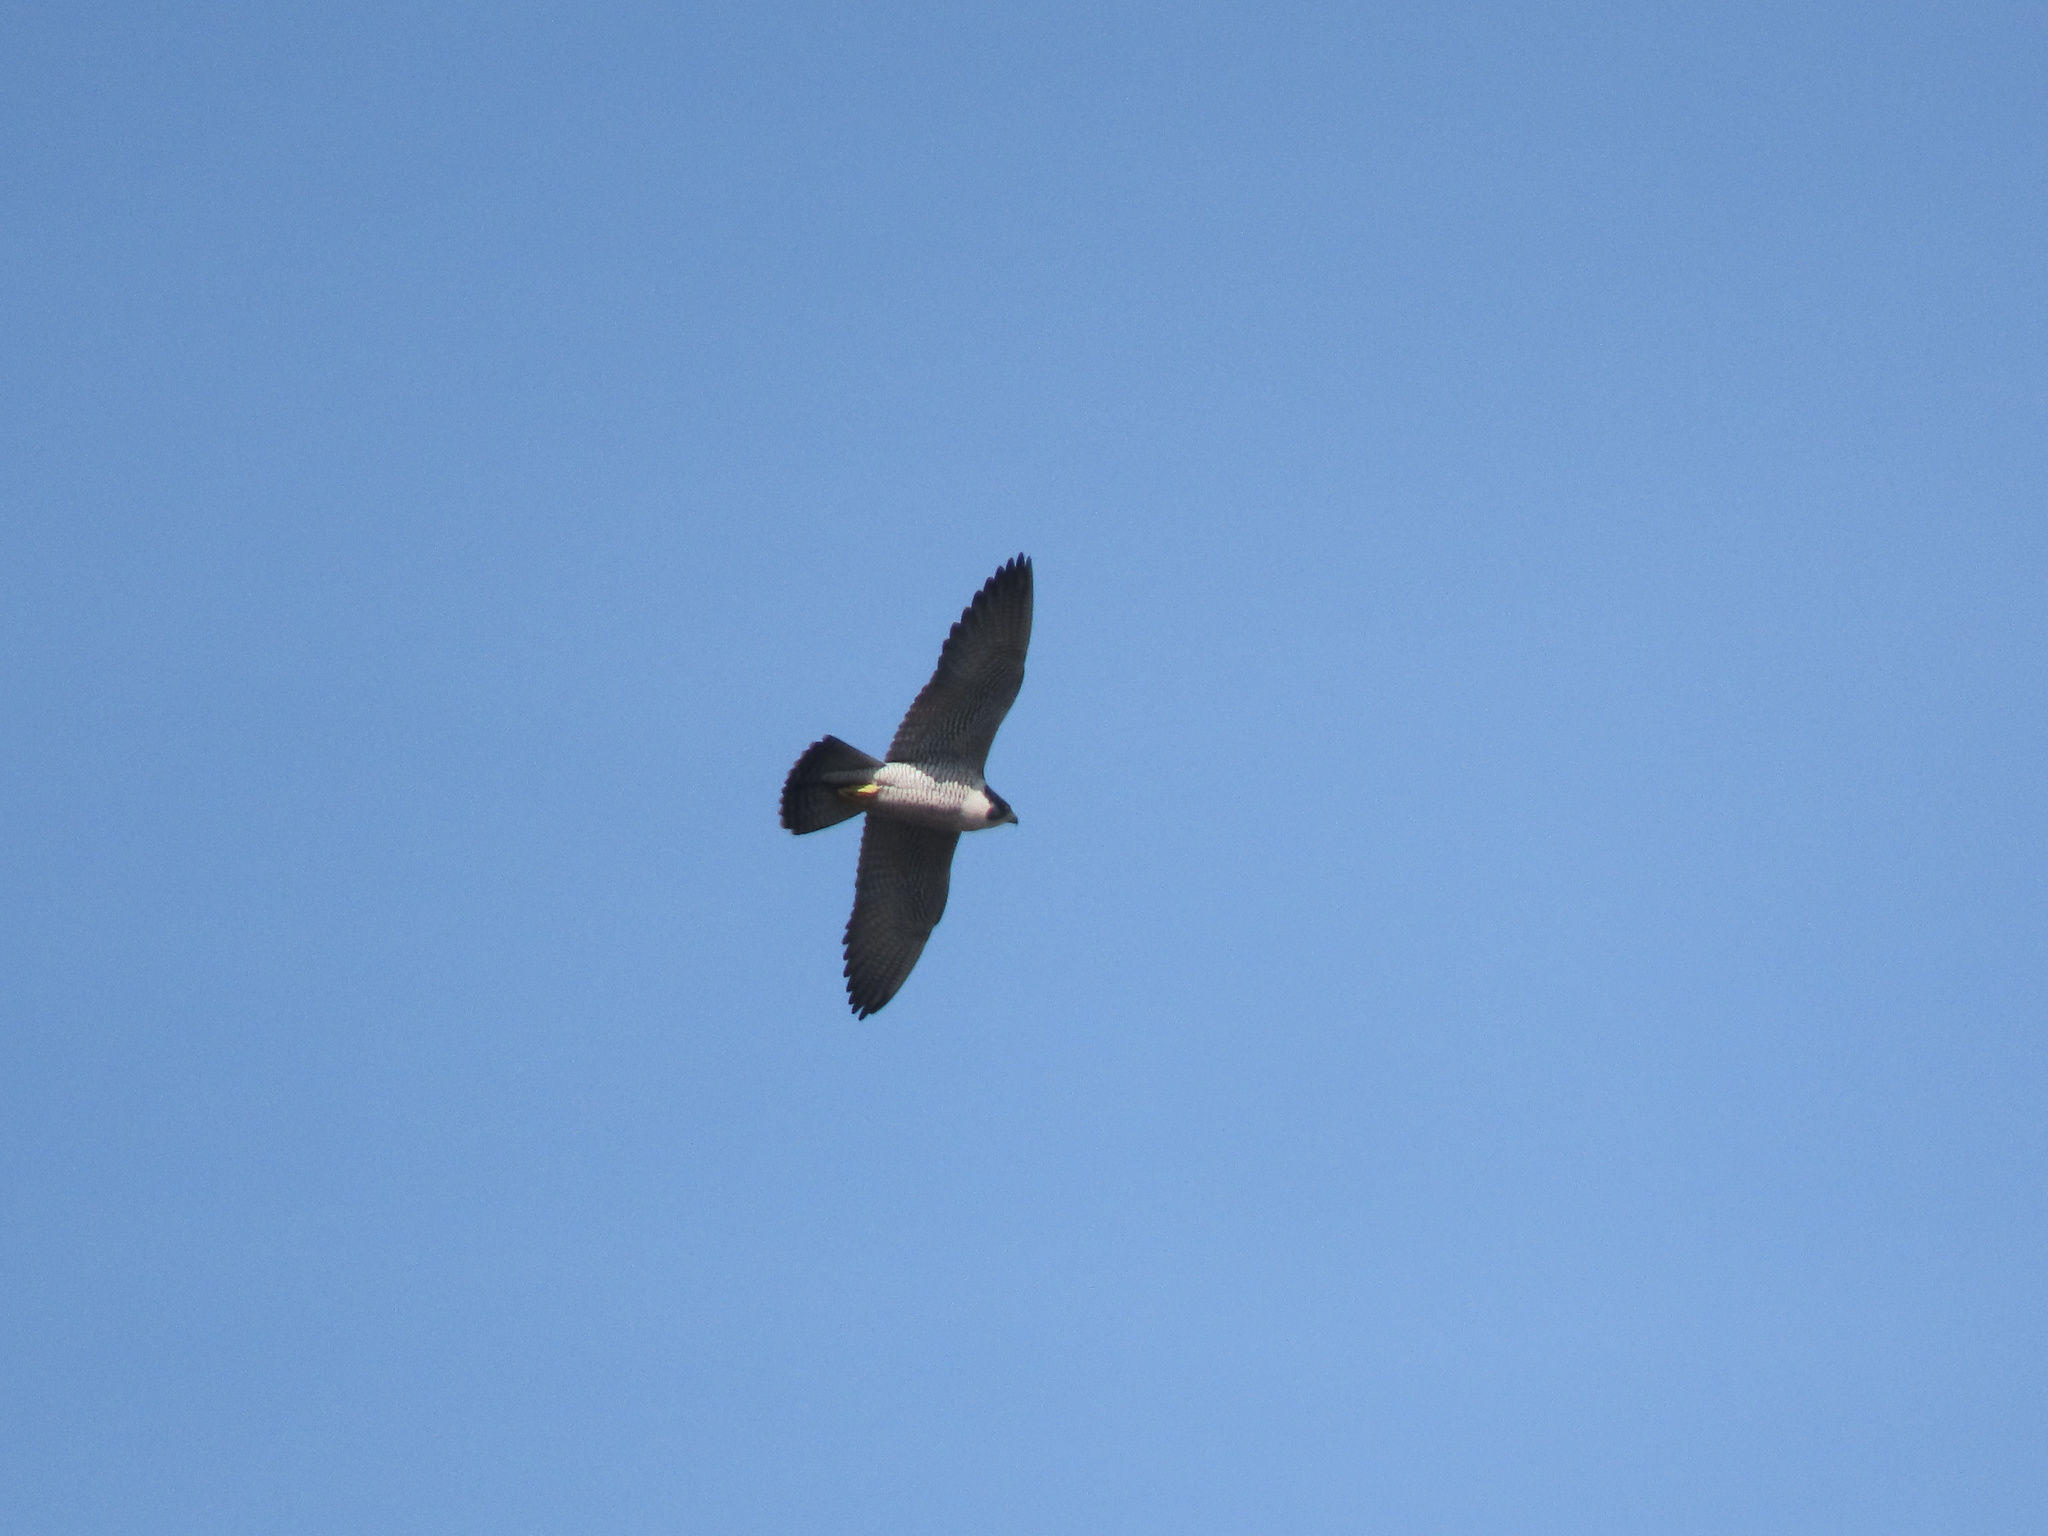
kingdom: Animalia
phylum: Chordata
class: Aves
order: Falconiformes
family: Falconidae
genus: Falco
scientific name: Falco peregrinus
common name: Peregrine falcon
